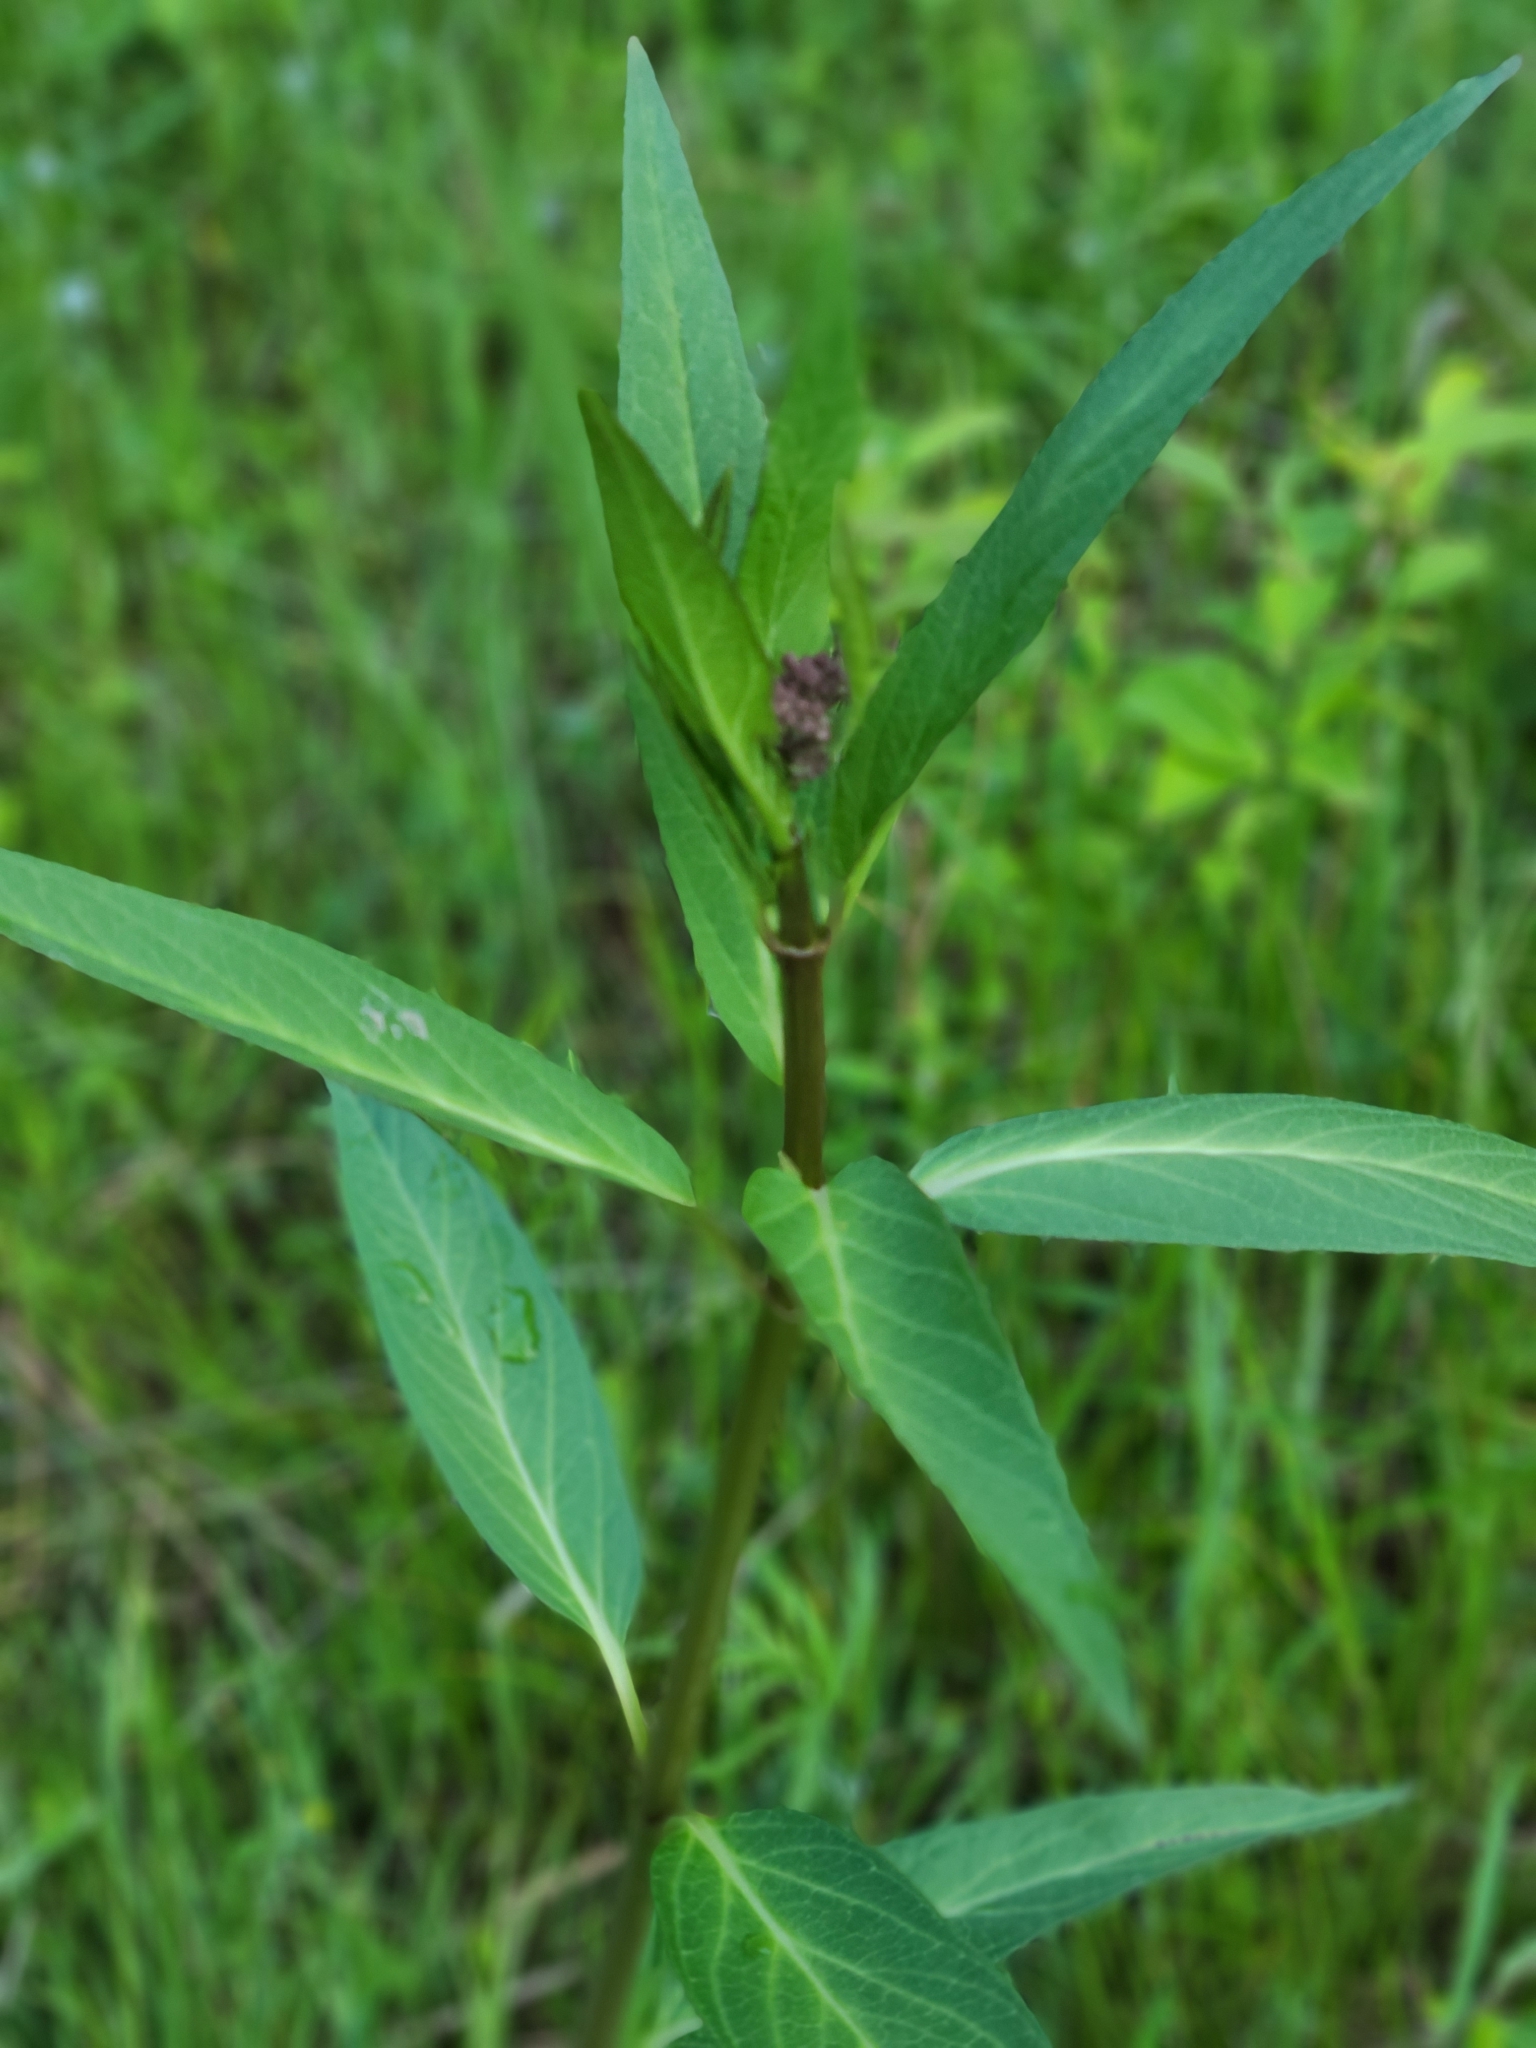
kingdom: Plantae
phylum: Tracheophyta
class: Magnoliopsida
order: Gentianales
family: Apocynaceae
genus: Asclepias
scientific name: Asclepias incarnata
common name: Swamp milkweed
